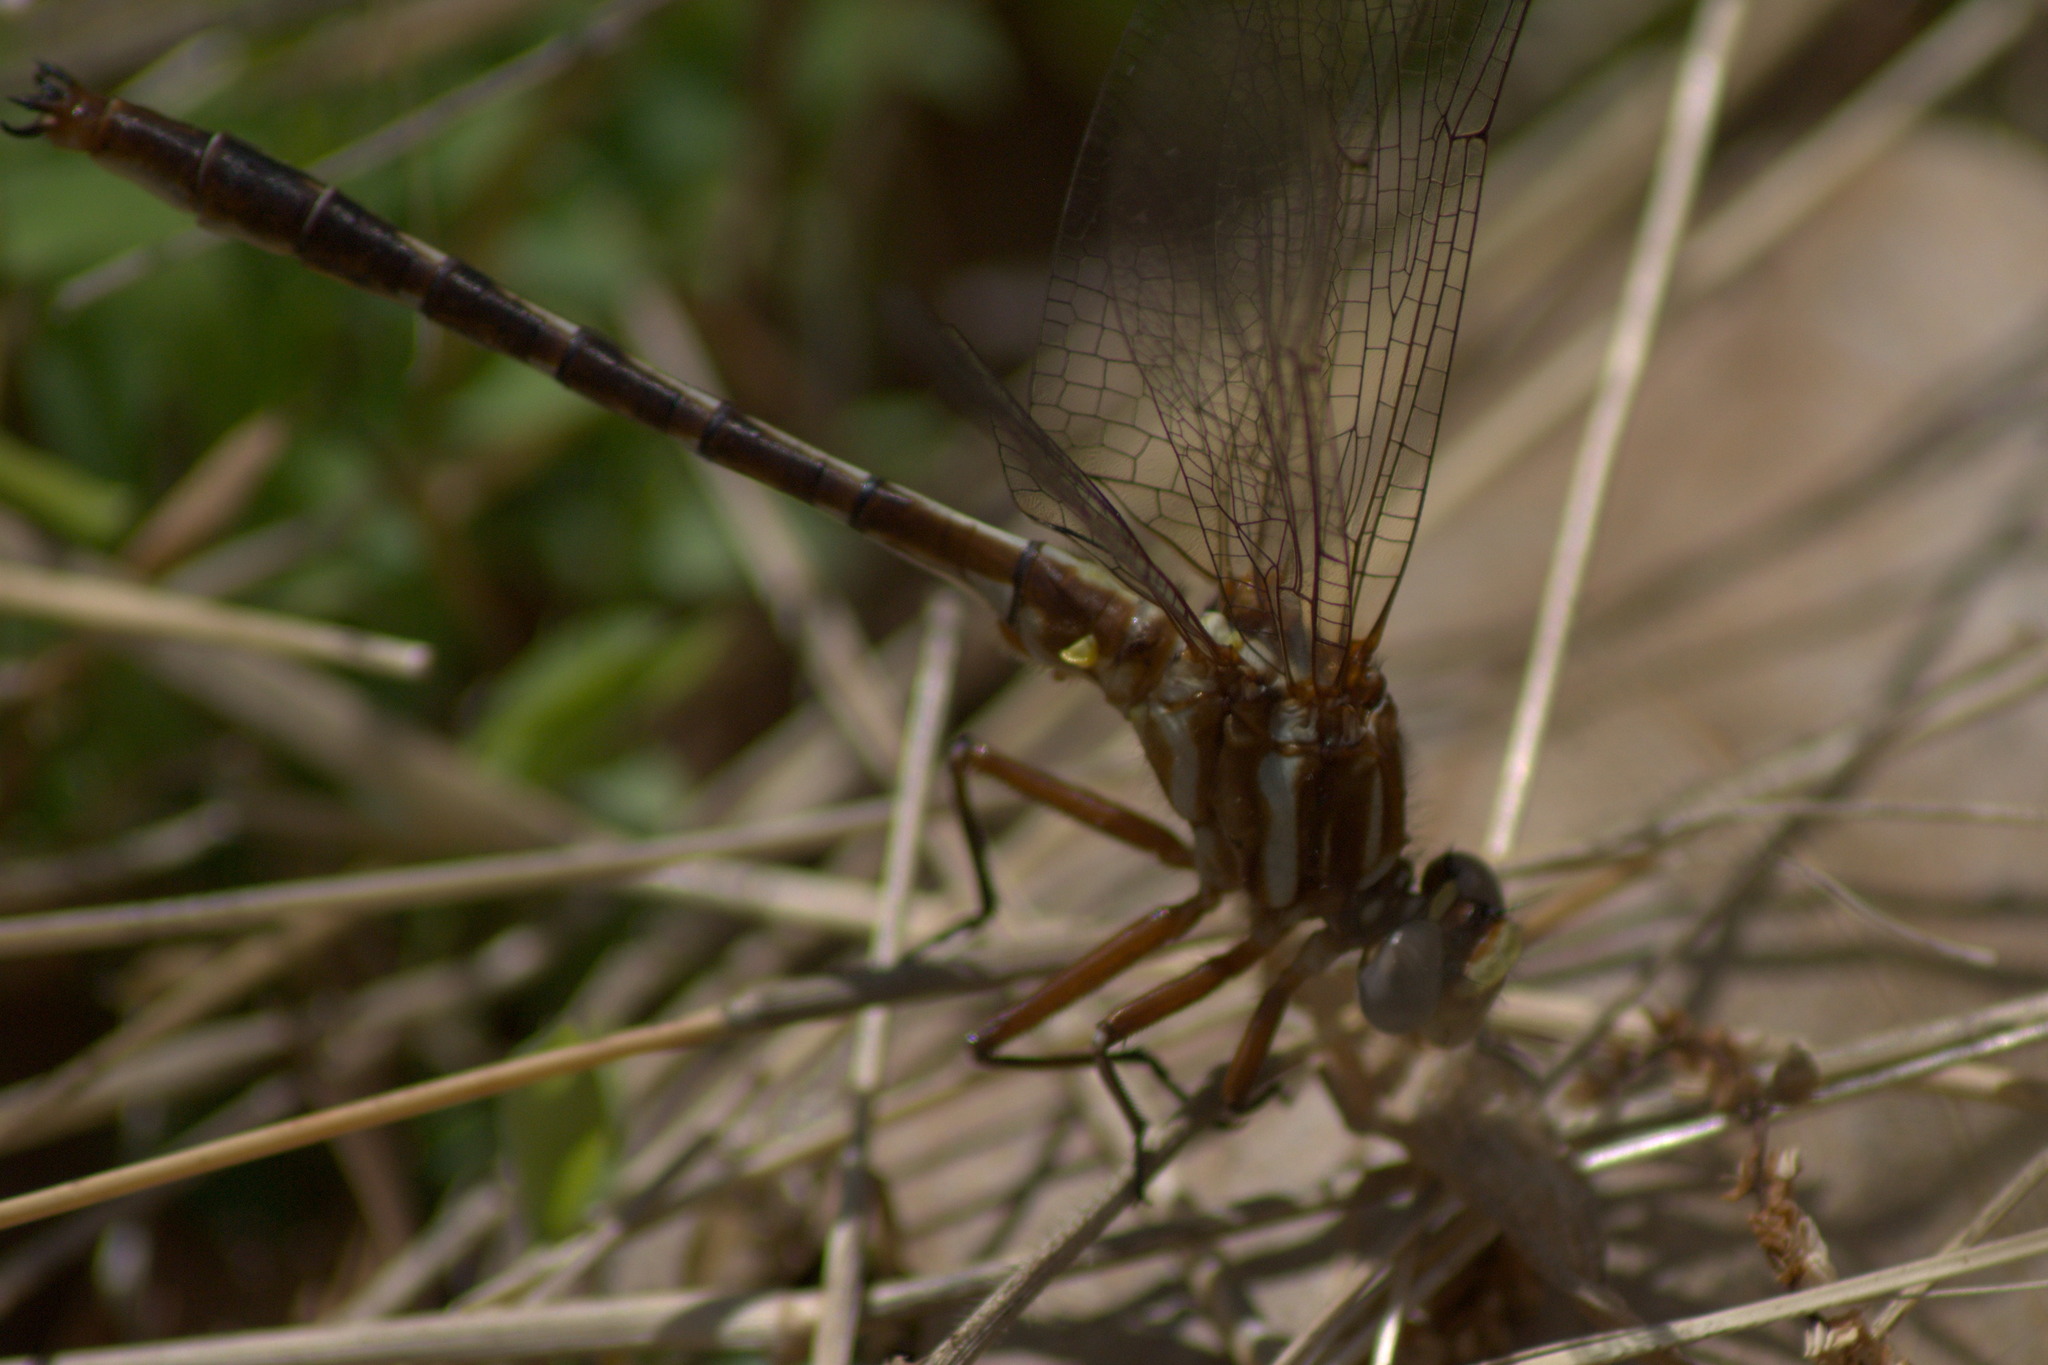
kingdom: Animalia
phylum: Arthropoda
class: Insecta
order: Odonata
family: Gomphidae
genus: Phanogomphus
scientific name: Phanogomphus lividus
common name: Ashy clubtail
